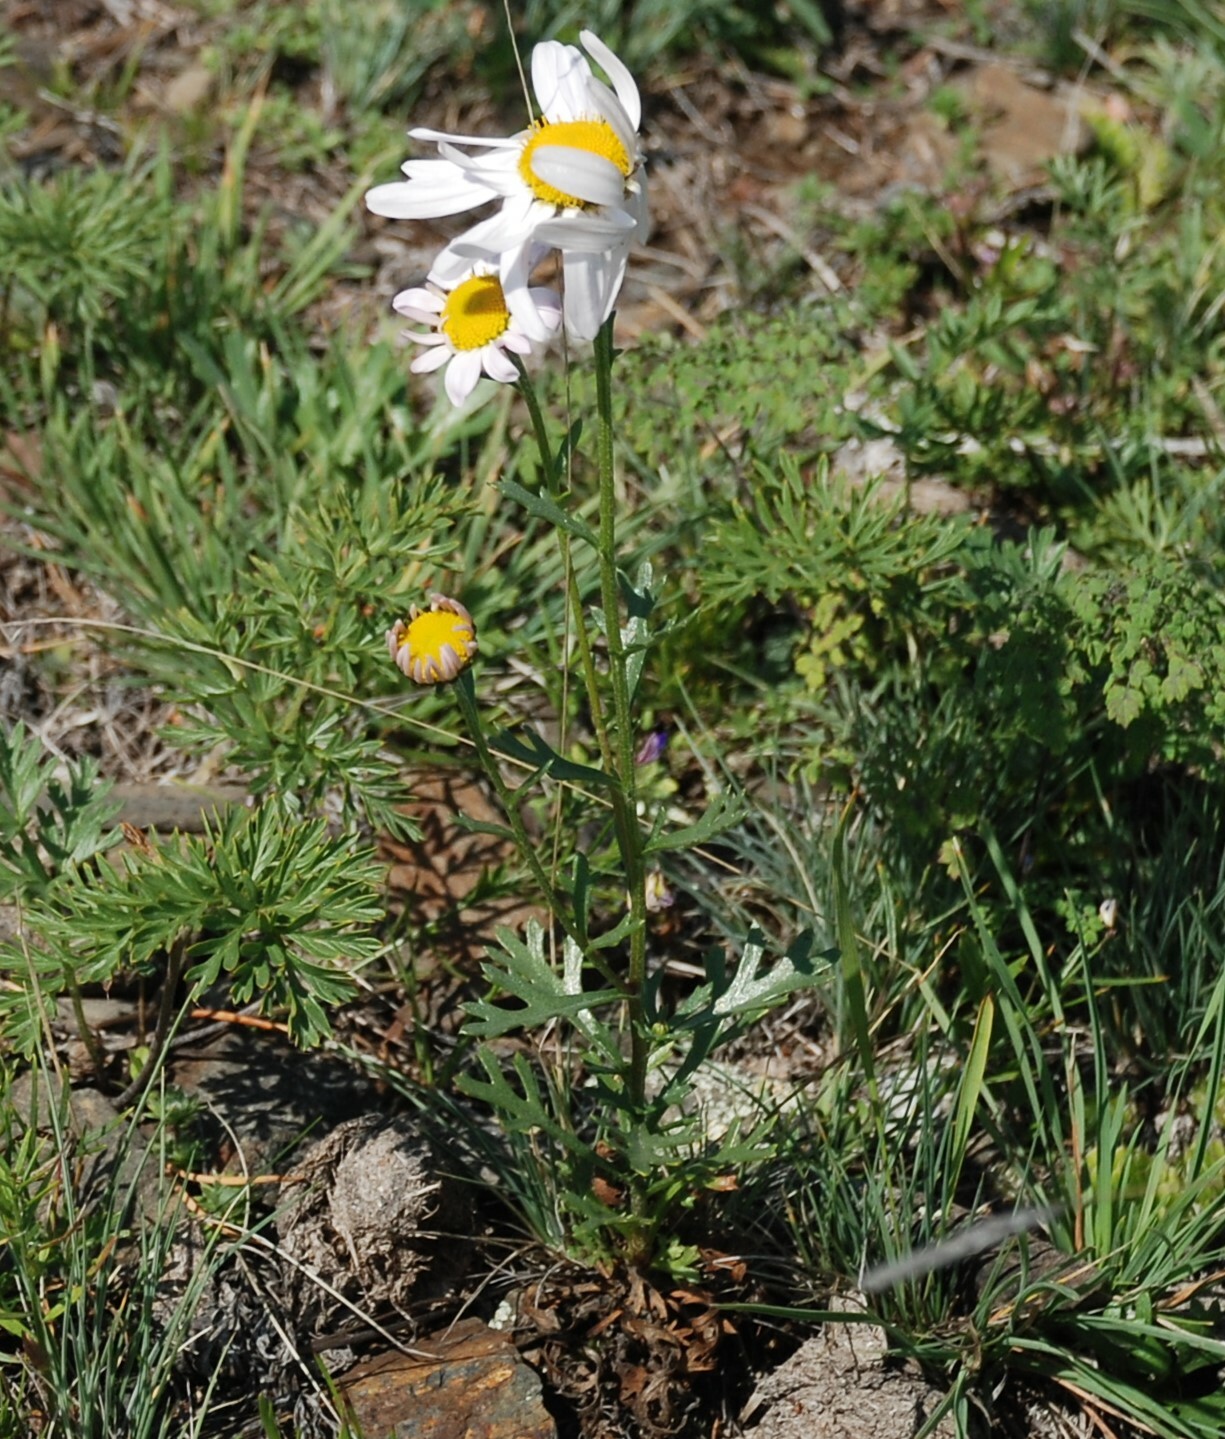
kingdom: Plantae
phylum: Tracheophyta
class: Magnoliopsida
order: Asterales
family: Asteraceae
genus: Chrysanthemum
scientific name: Chrysanthemum zawadzkii
